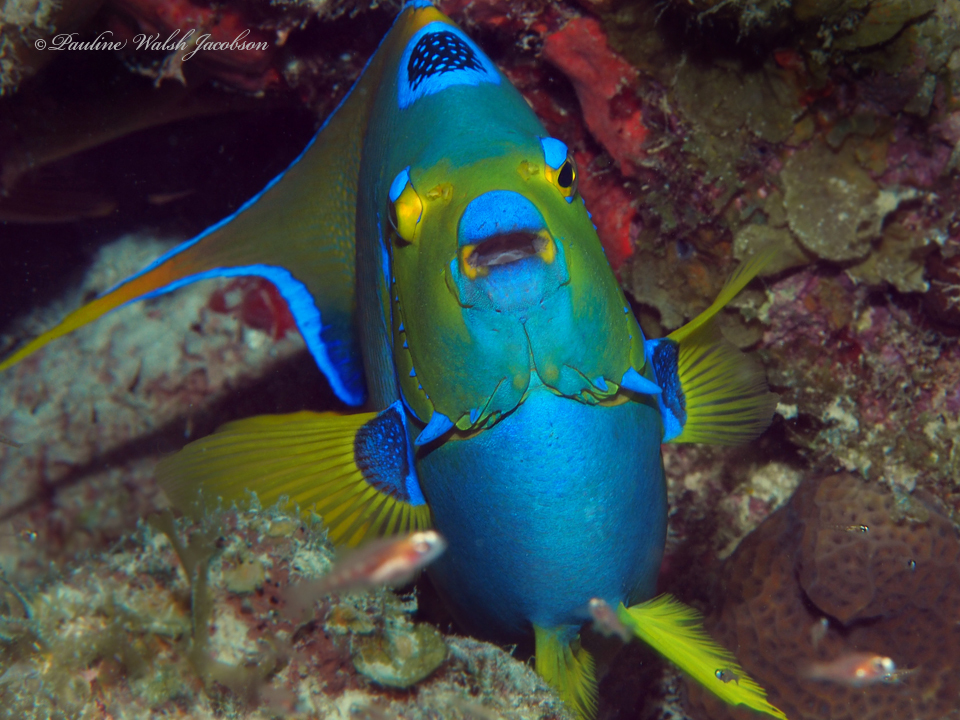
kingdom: Animalia
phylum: Chordata
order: Perciformes
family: Pomacanthidae
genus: Holacanthus
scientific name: Holacanthus ciliaris
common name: Queen angelfish
